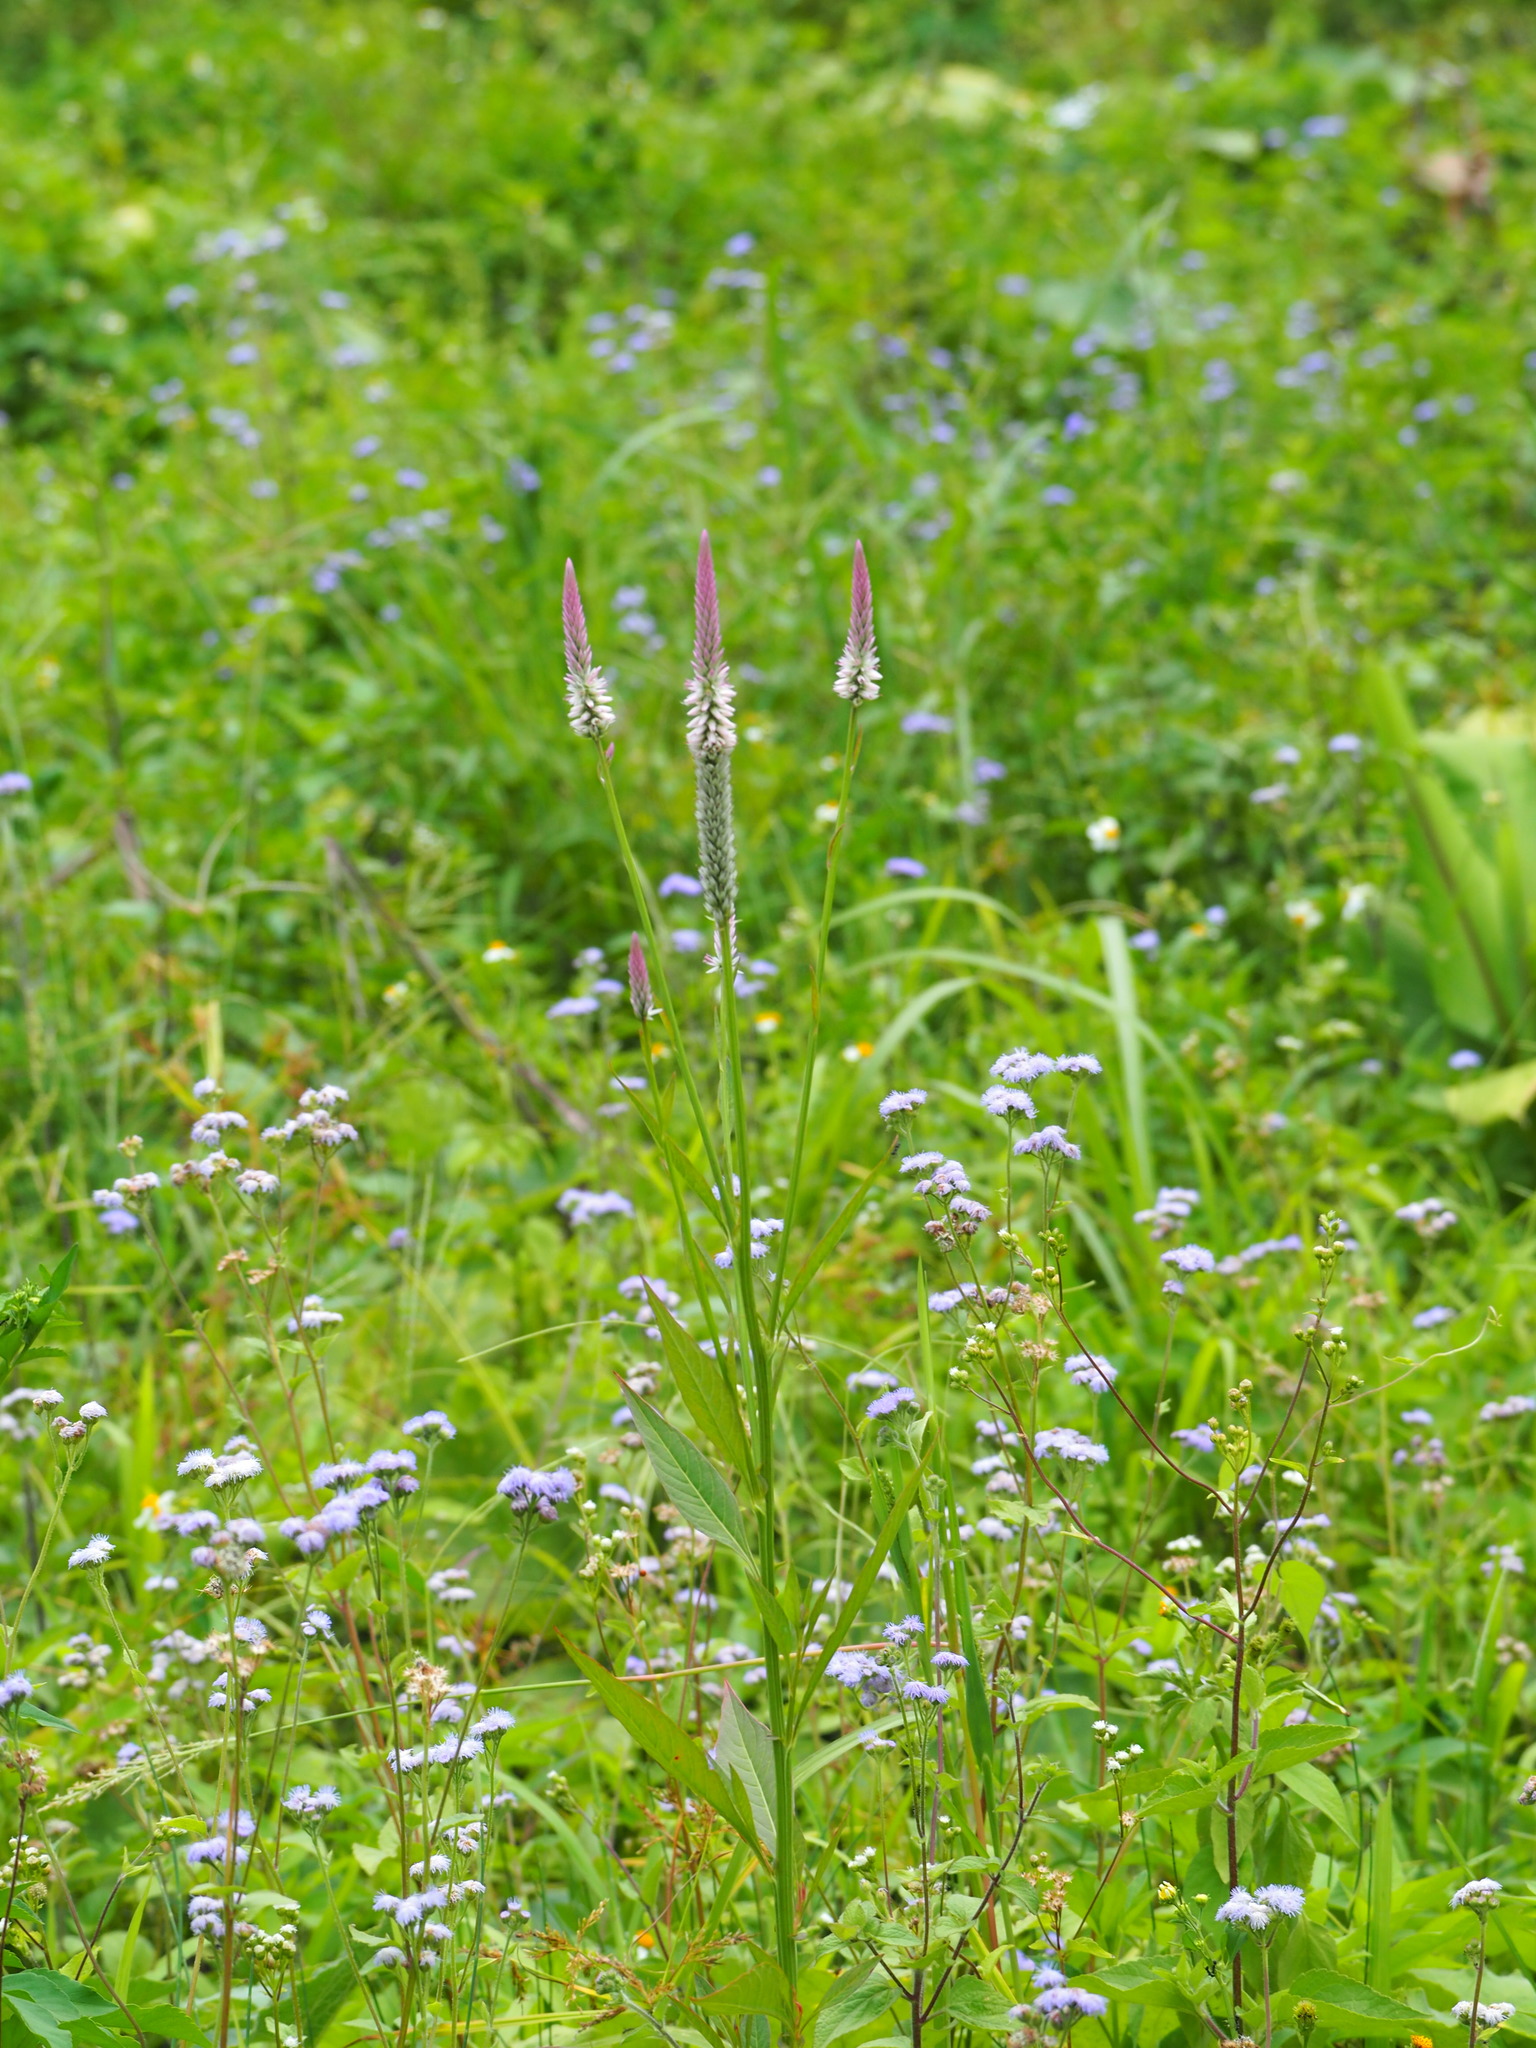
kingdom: Plantae
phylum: Tracheophyta
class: Magnoliopsida
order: Caryophyllales
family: Amaranthaceae
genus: Celosia
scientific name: Celosia argentea
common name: Feather cockscomb
